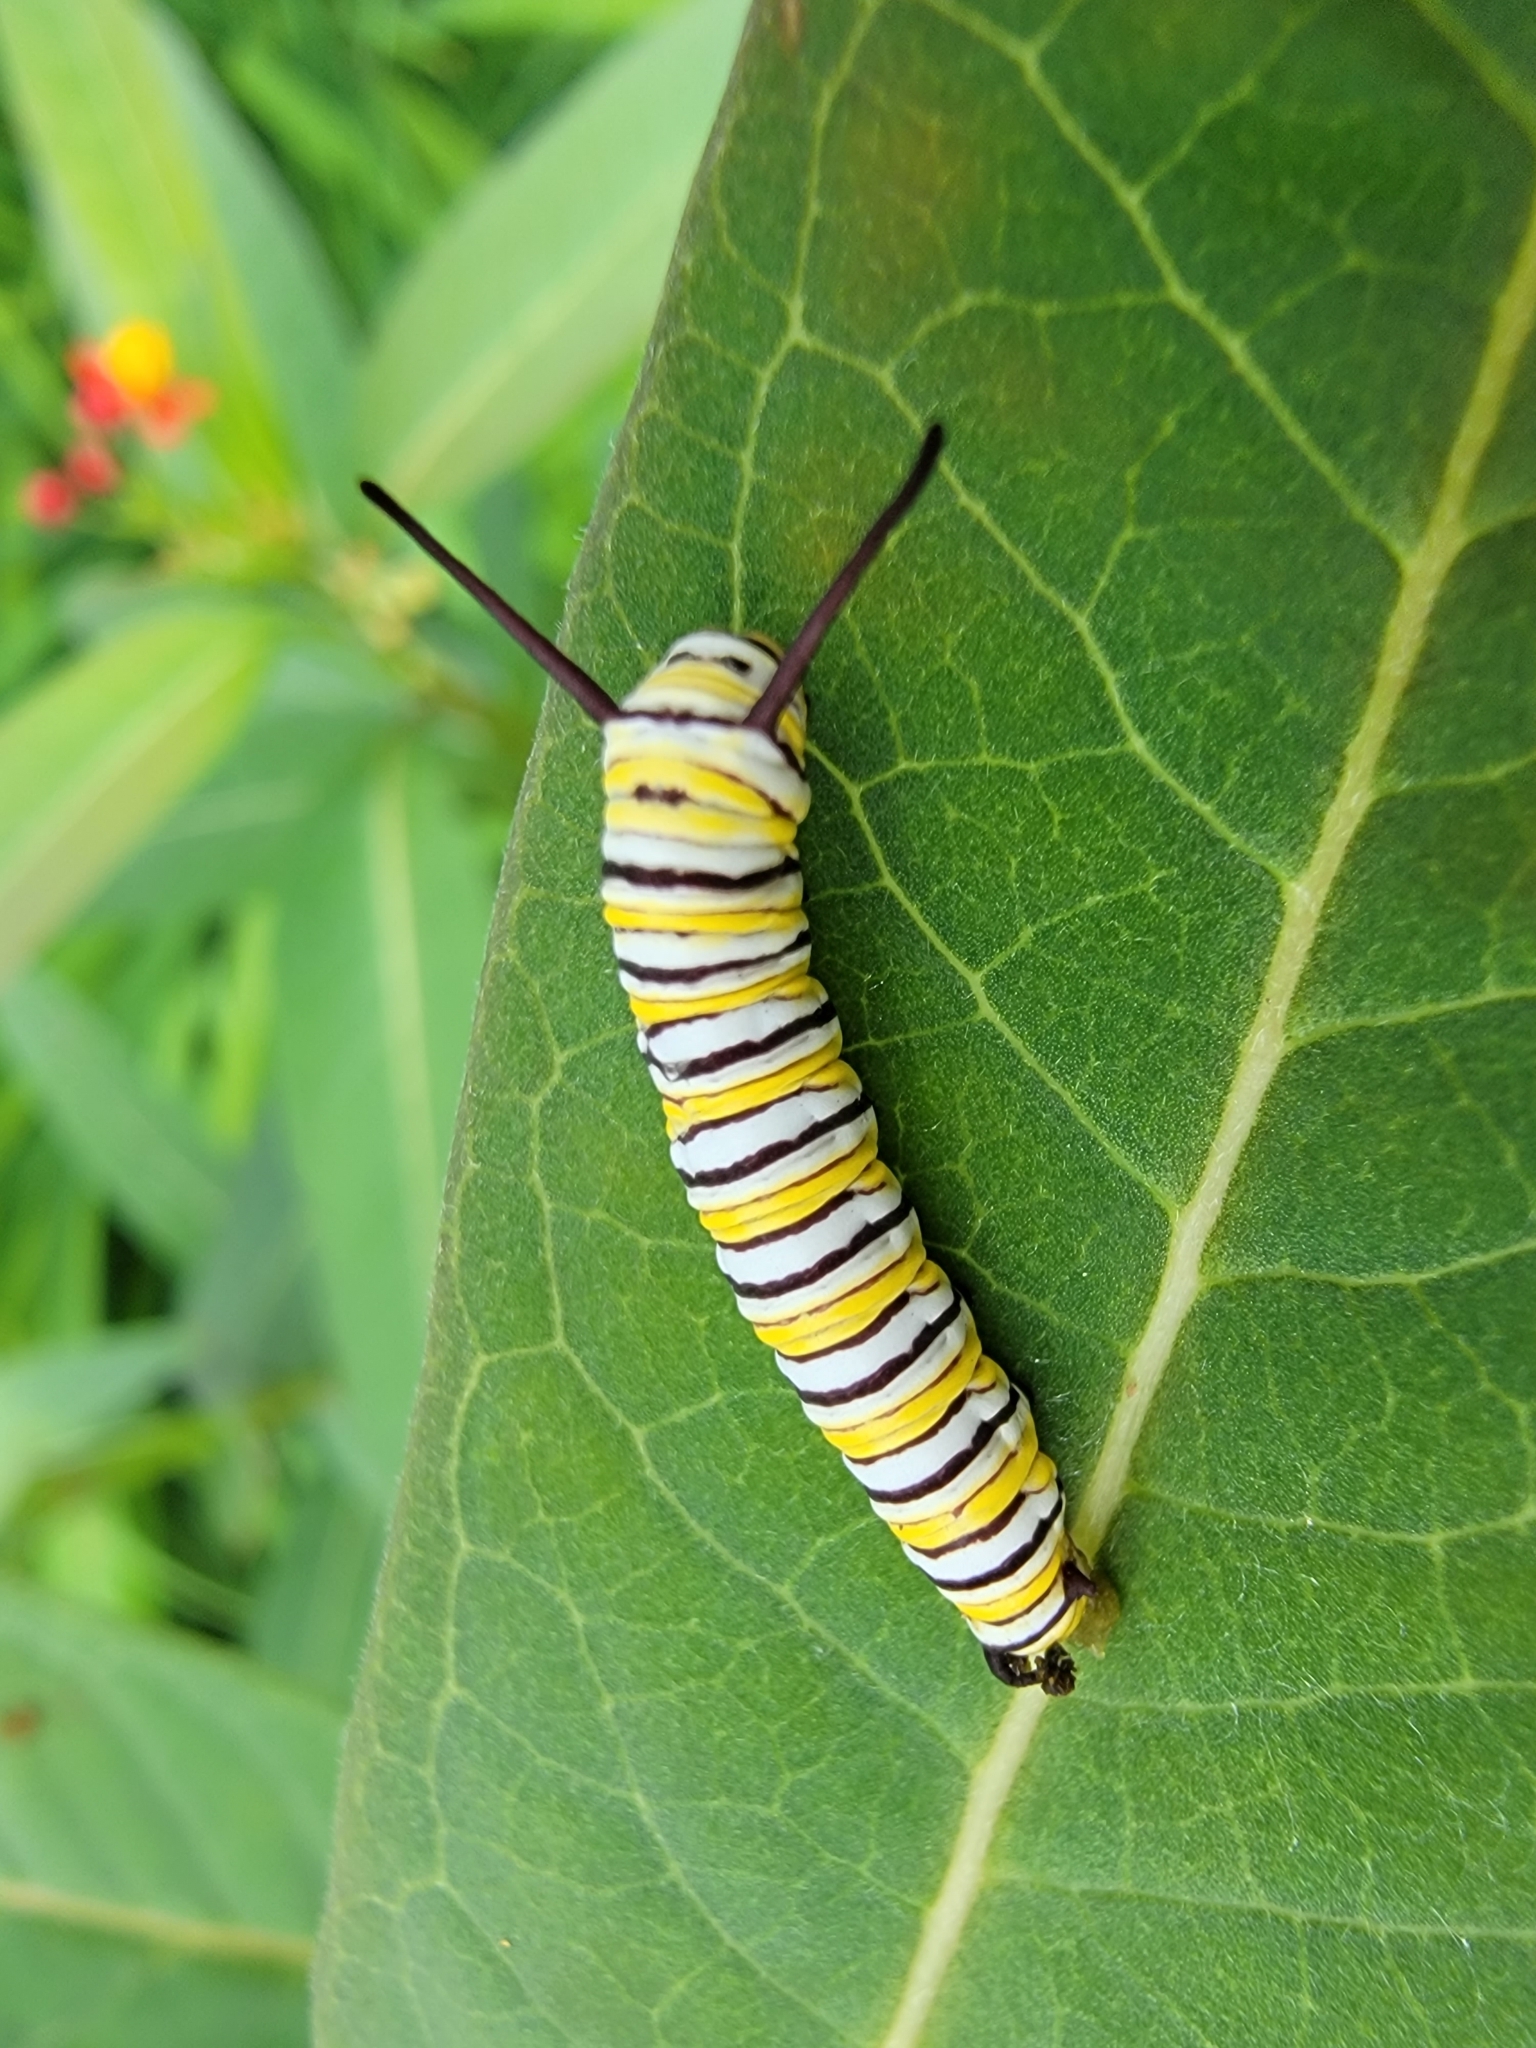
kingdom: Animalia
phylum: Arthropoda
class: Insecta
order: Lepidoptera
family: Nymphalidae
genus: Danaus
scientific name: Danaus plexippus
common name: Monarch
